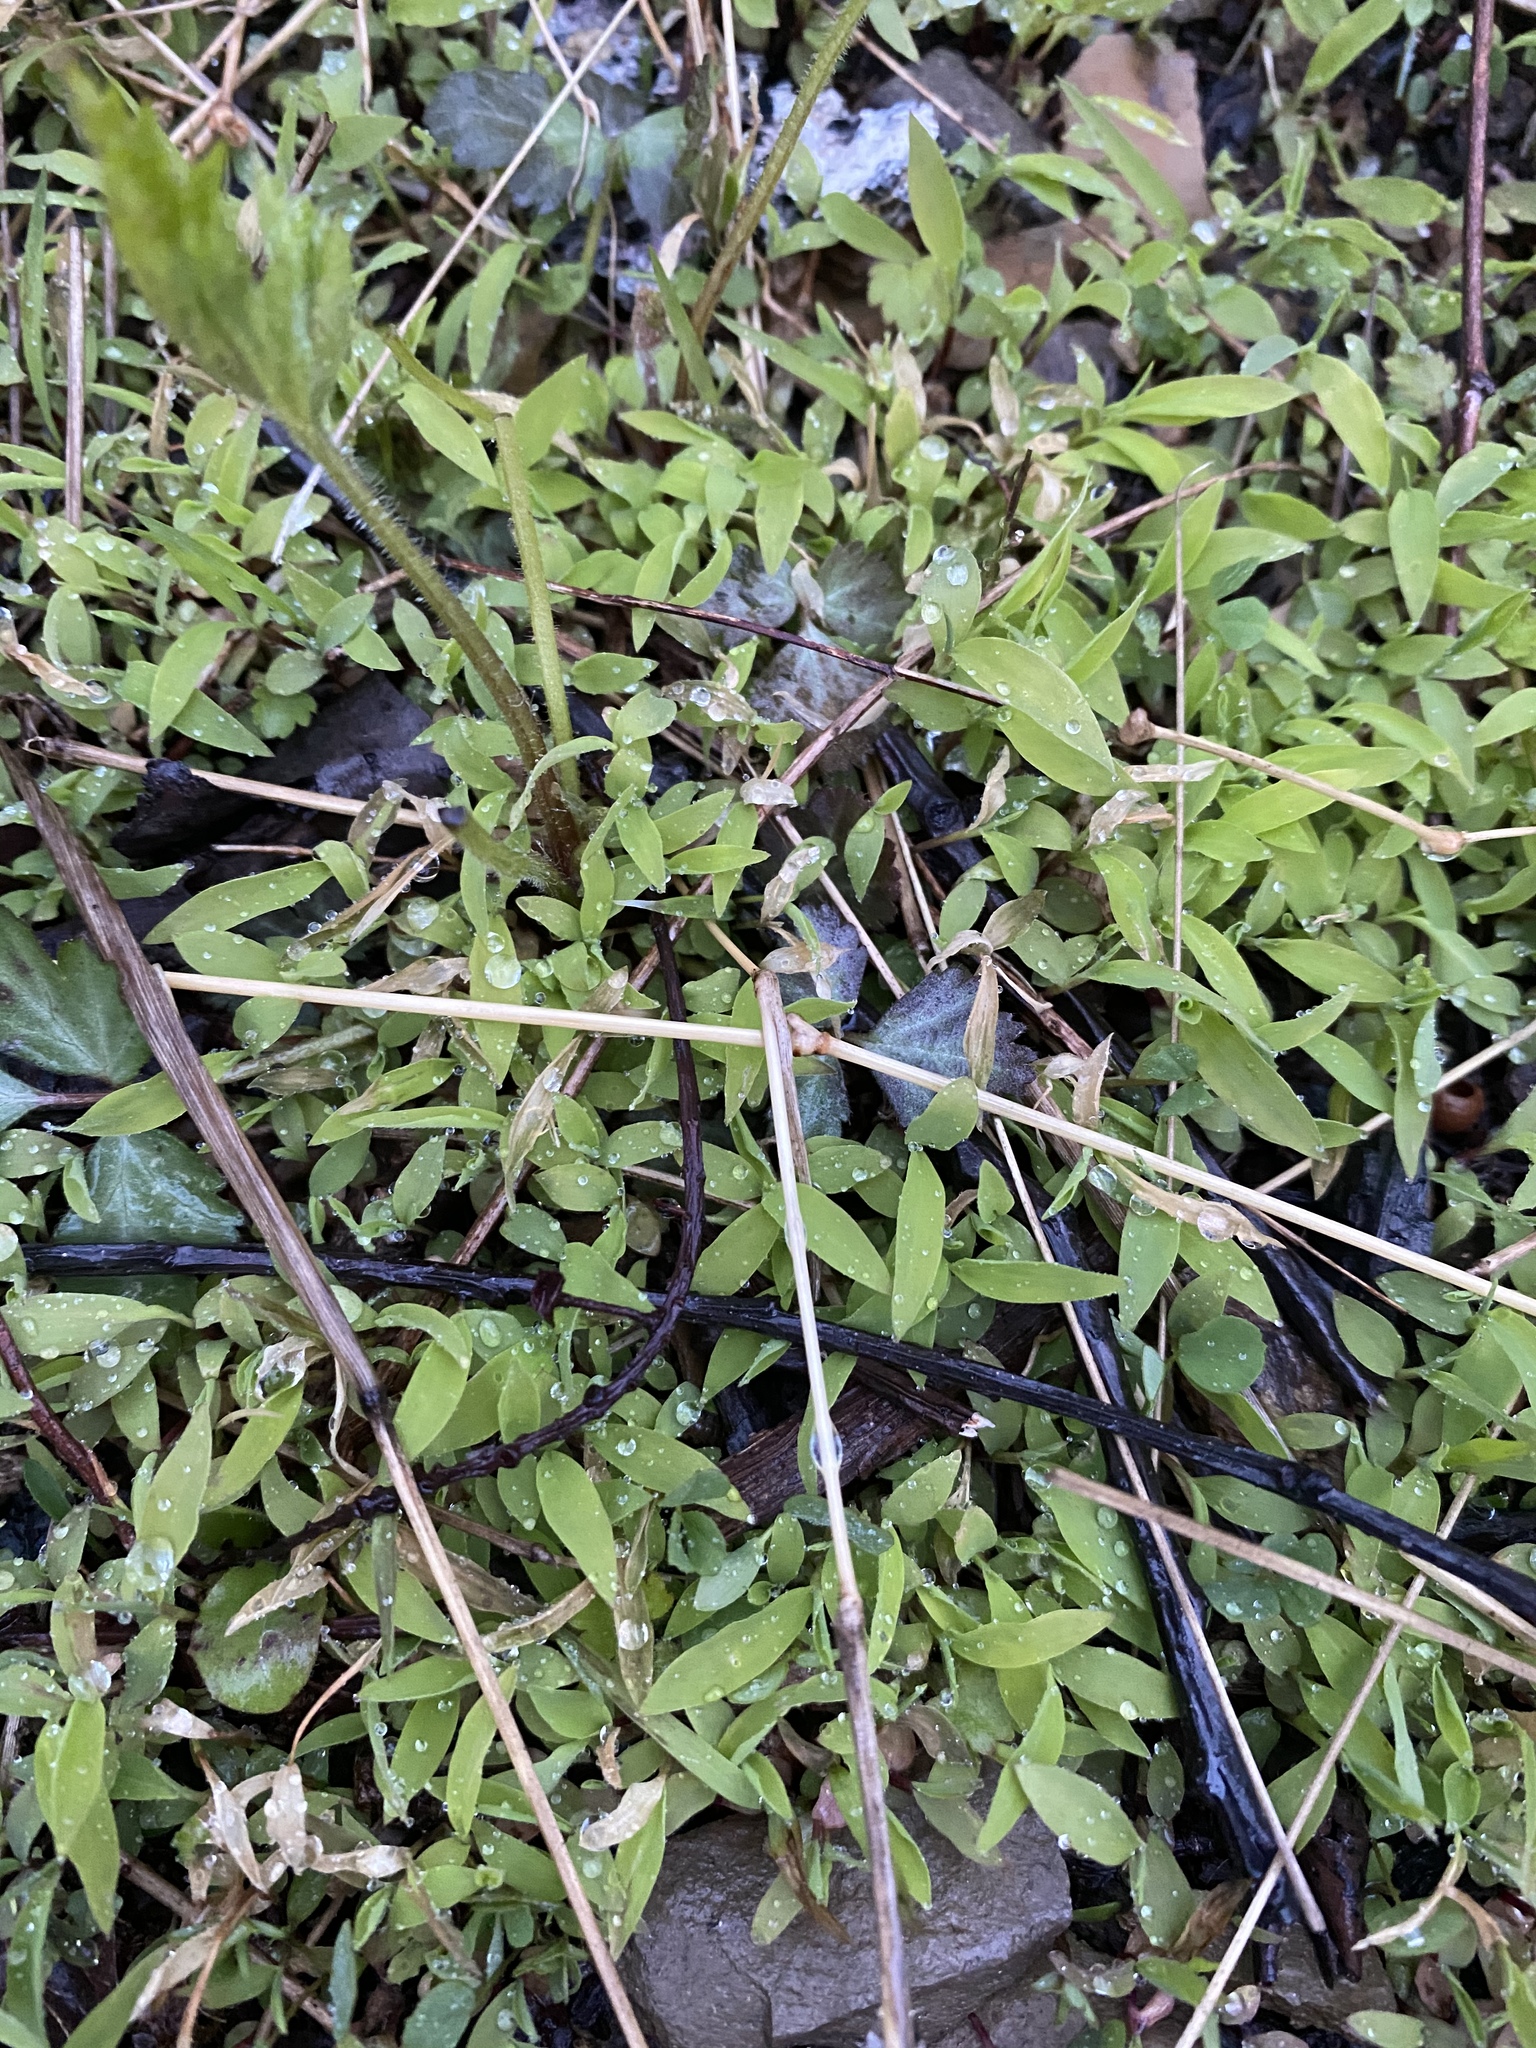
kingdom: Plantae
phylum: Tracheophyta
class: Liliopsida
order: Poales
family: Poaceae
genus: Microstegium
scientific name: Microstegium vimineum
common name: Japanese stiltgrass
